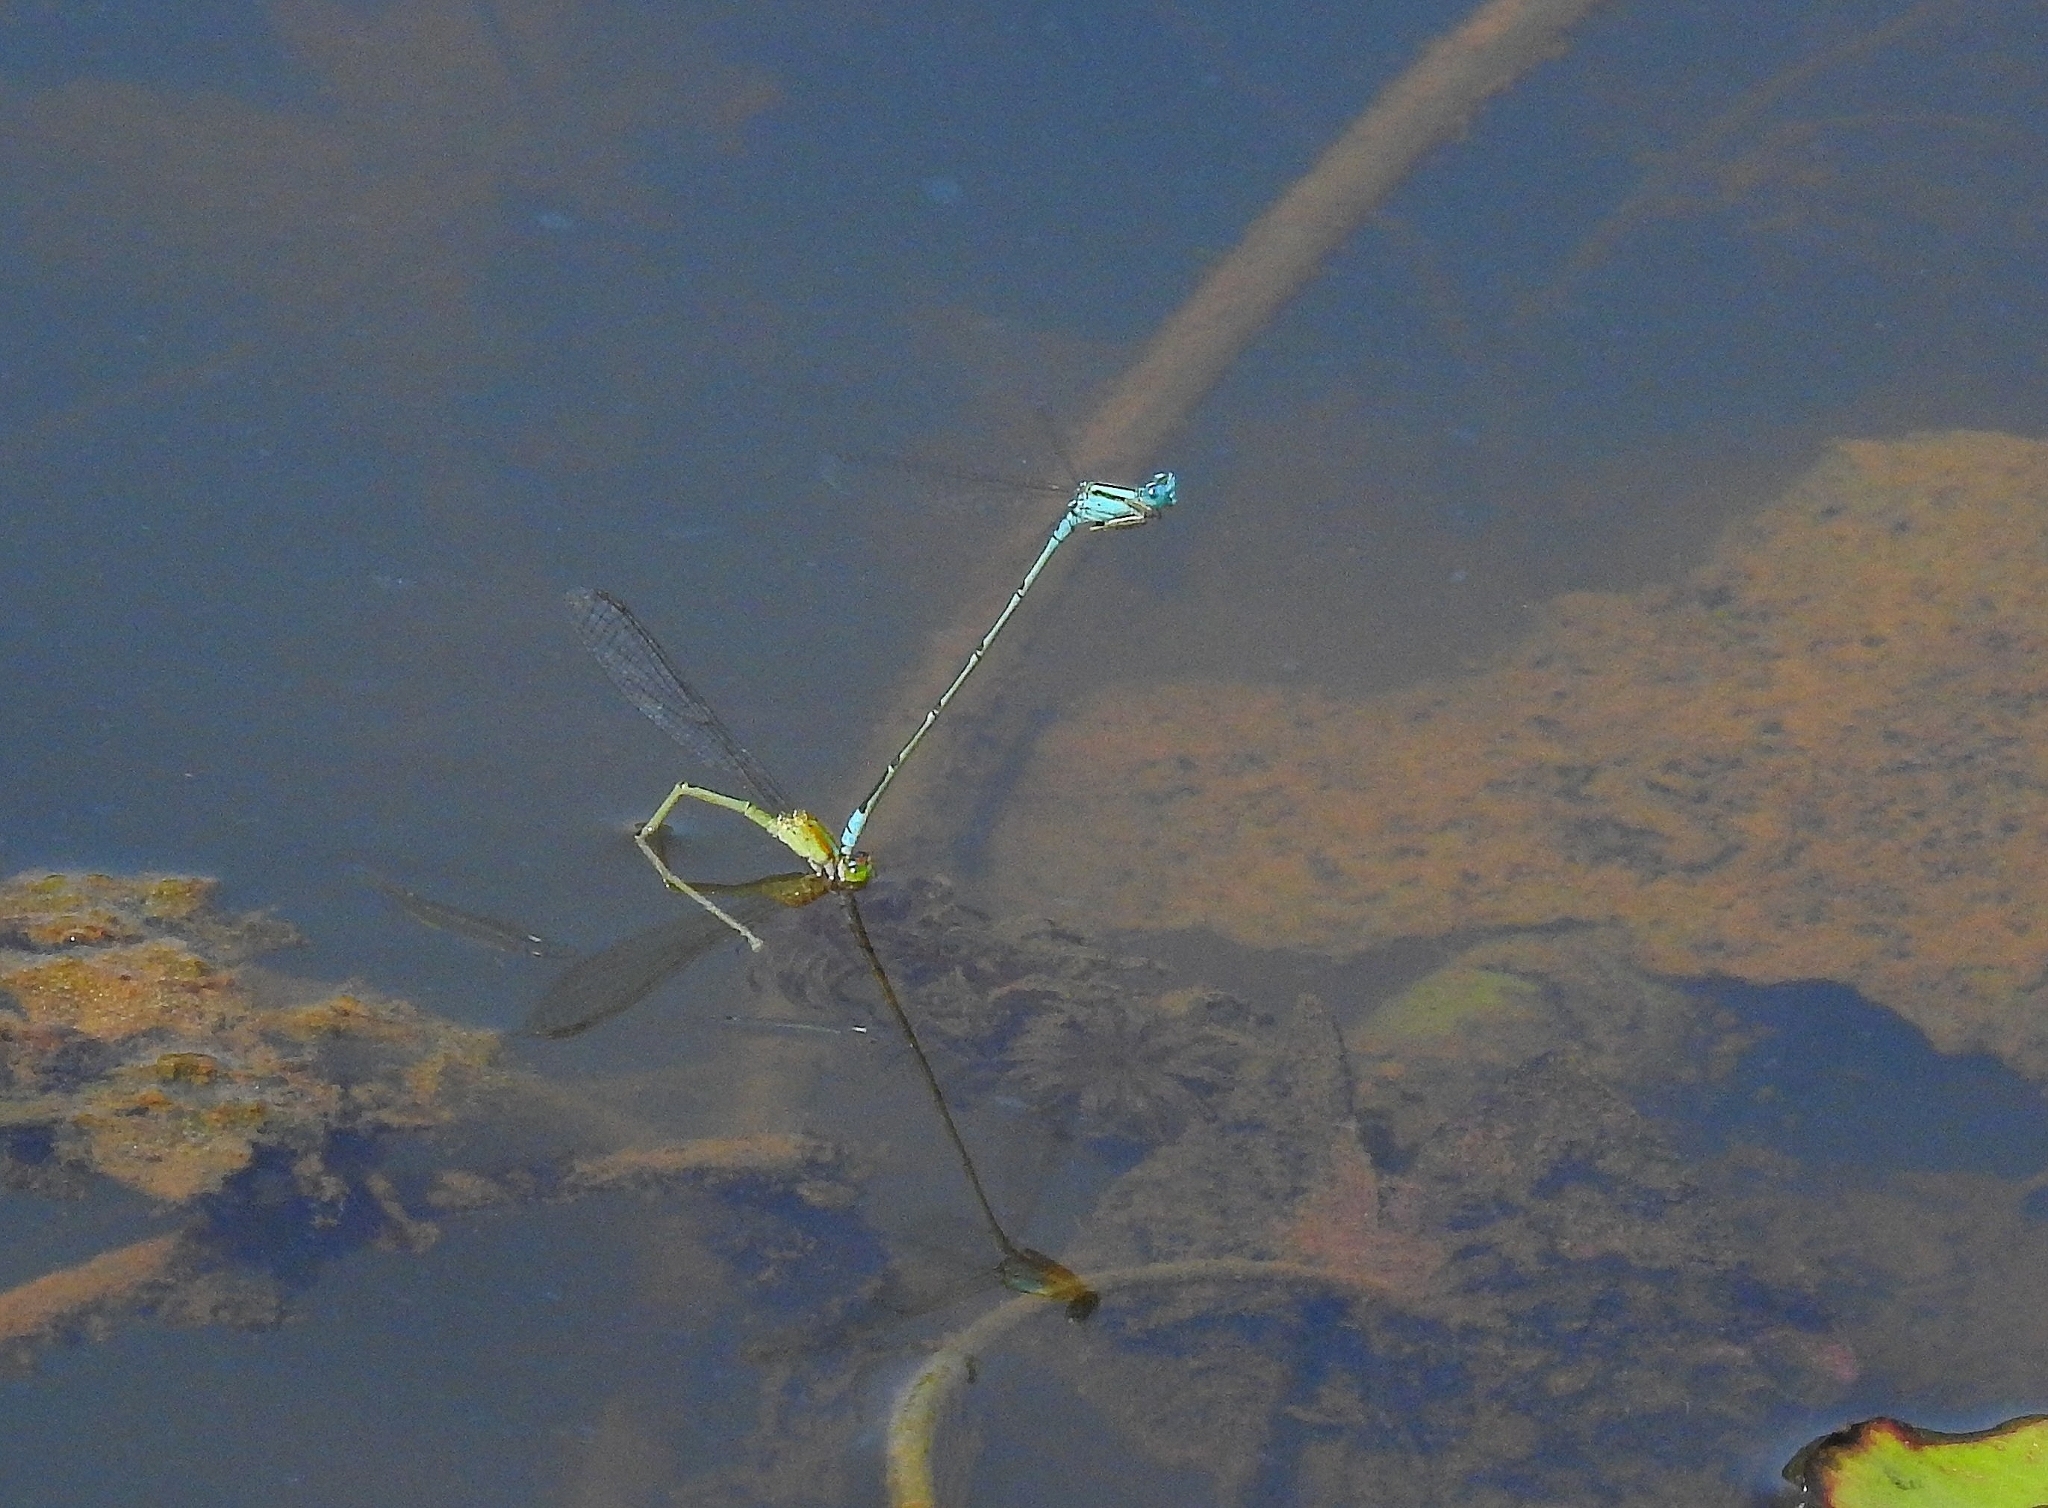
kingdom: Animalia
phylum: Arthropoda
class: Insecta
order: Odonata
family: Coenagrionidae
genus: Pseudagrion
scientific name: Pseudagrion microcephalum
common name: Blue riverdamsel
